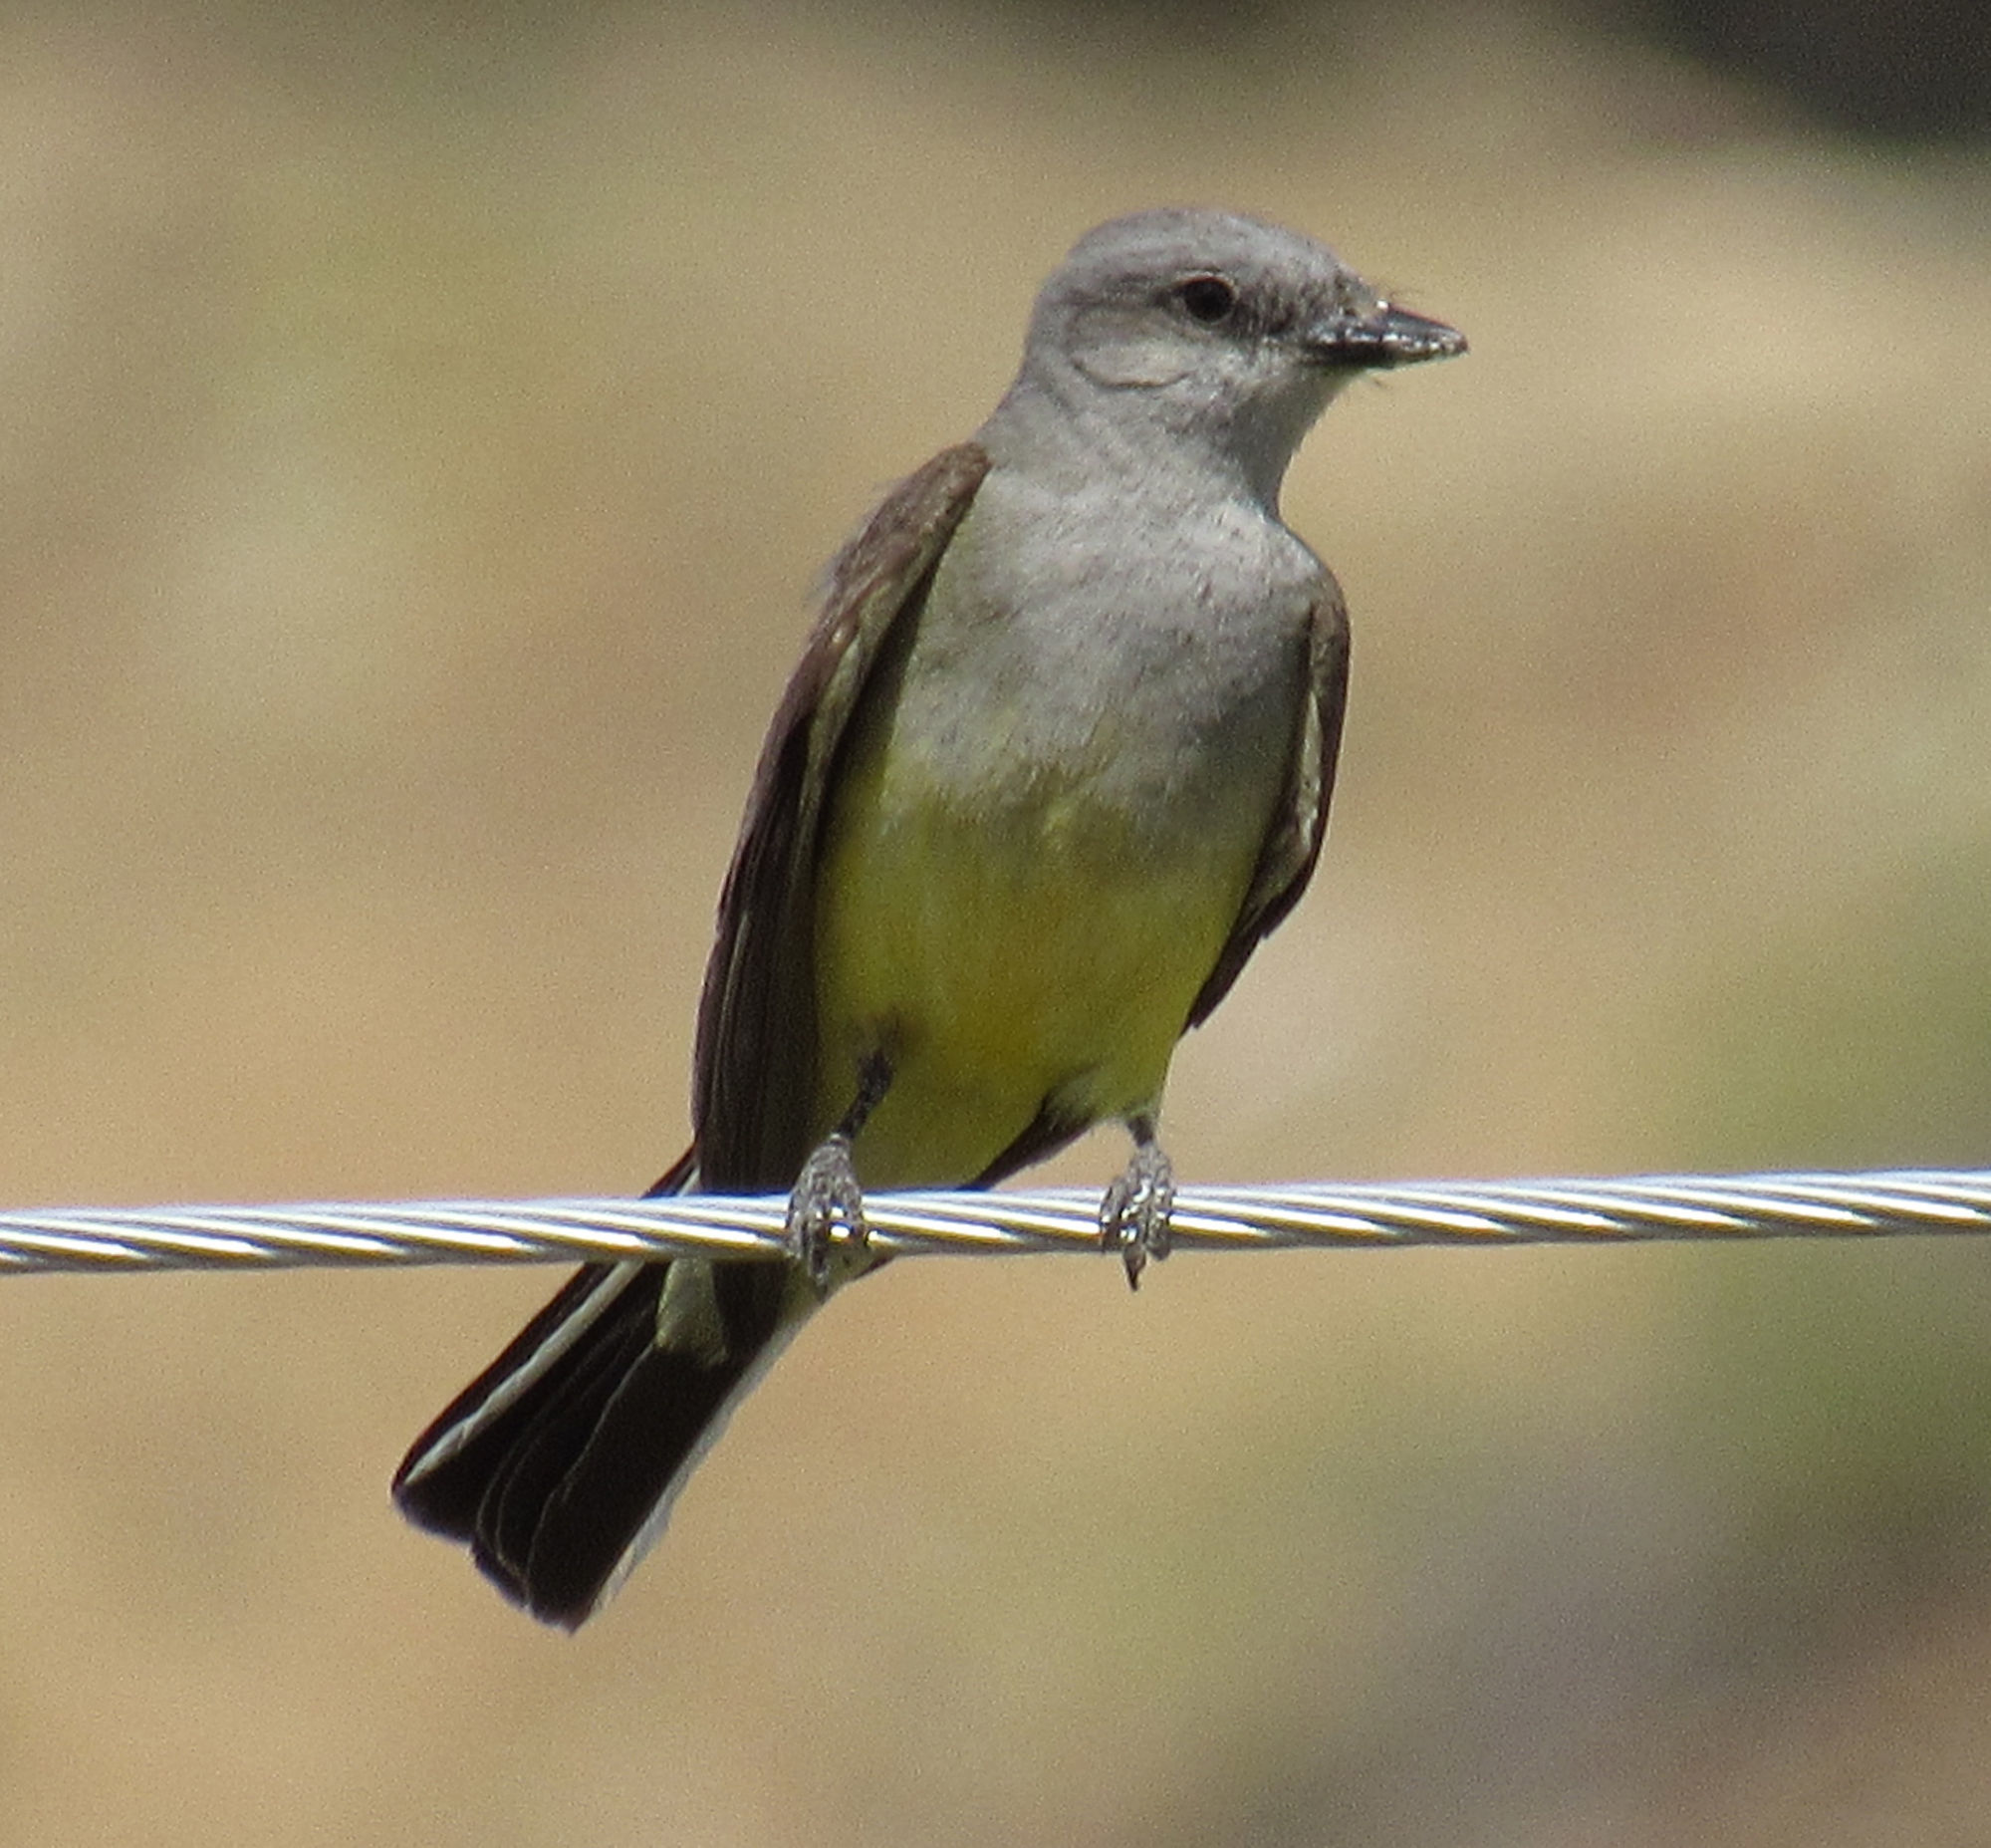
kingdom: Animalia
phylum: Chordata
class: Aves
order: Passeriformes
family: Tyrannidae
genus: Tyrannus
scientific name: Tyrannus verticalis
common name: Western kingbird
